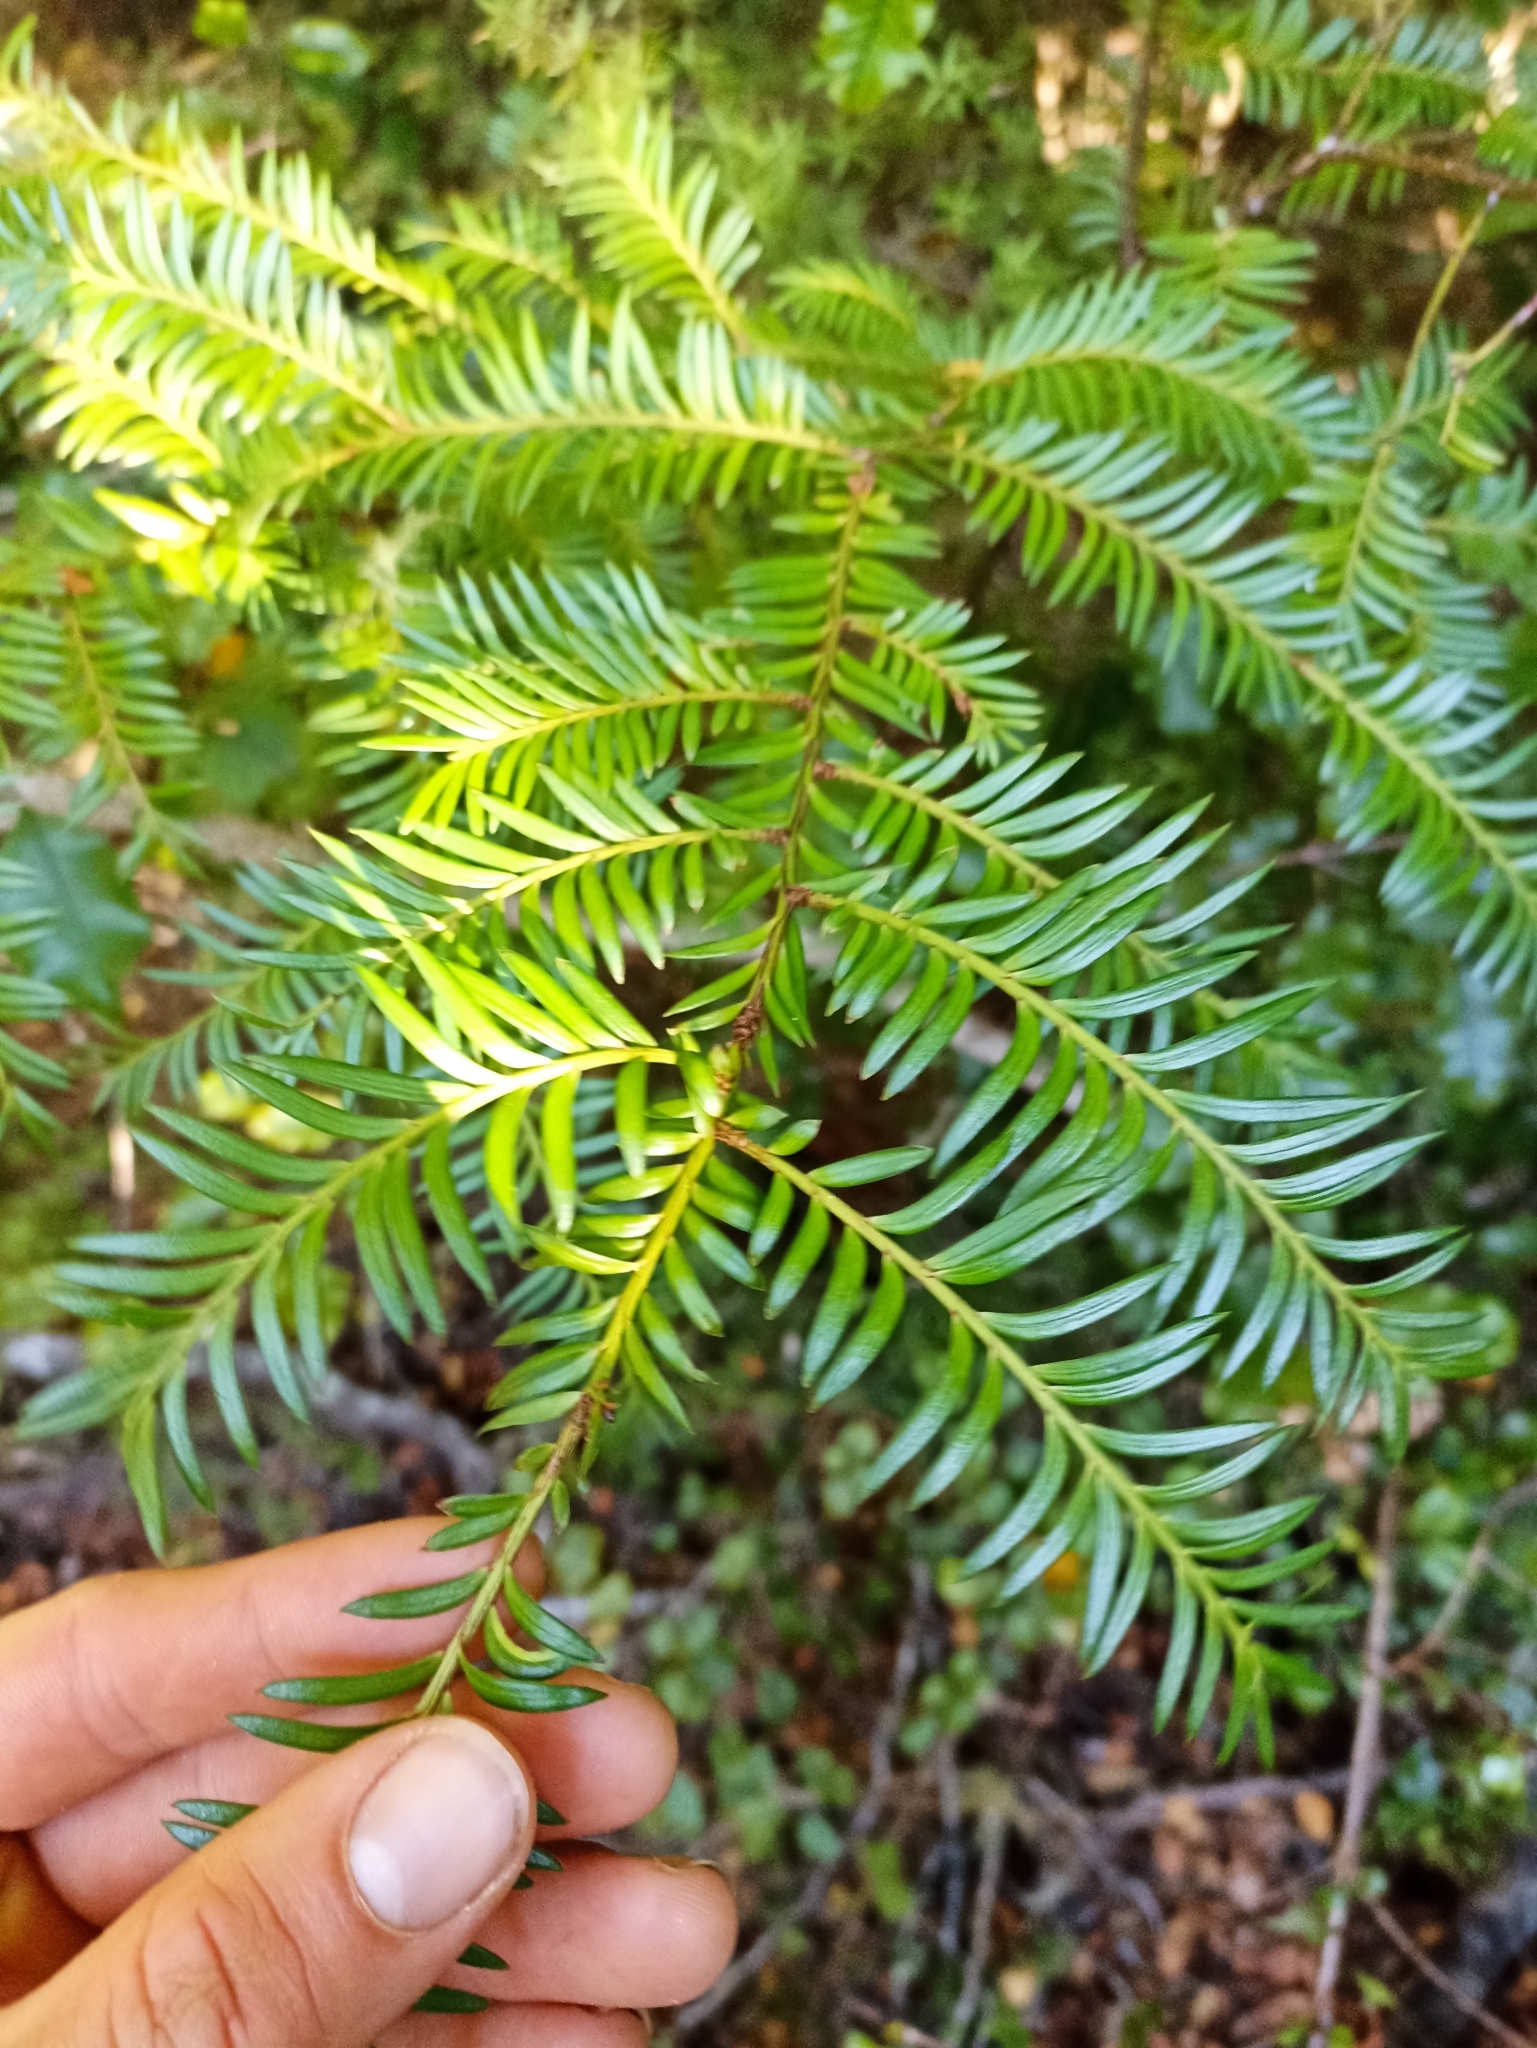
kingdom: Plantae
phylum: Tracheophyta
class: Pinopsida
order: Pinales
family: Podocarpaceae
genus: Prumnopitys
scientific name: Prumnopitys ferruginea
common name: Brown pine
